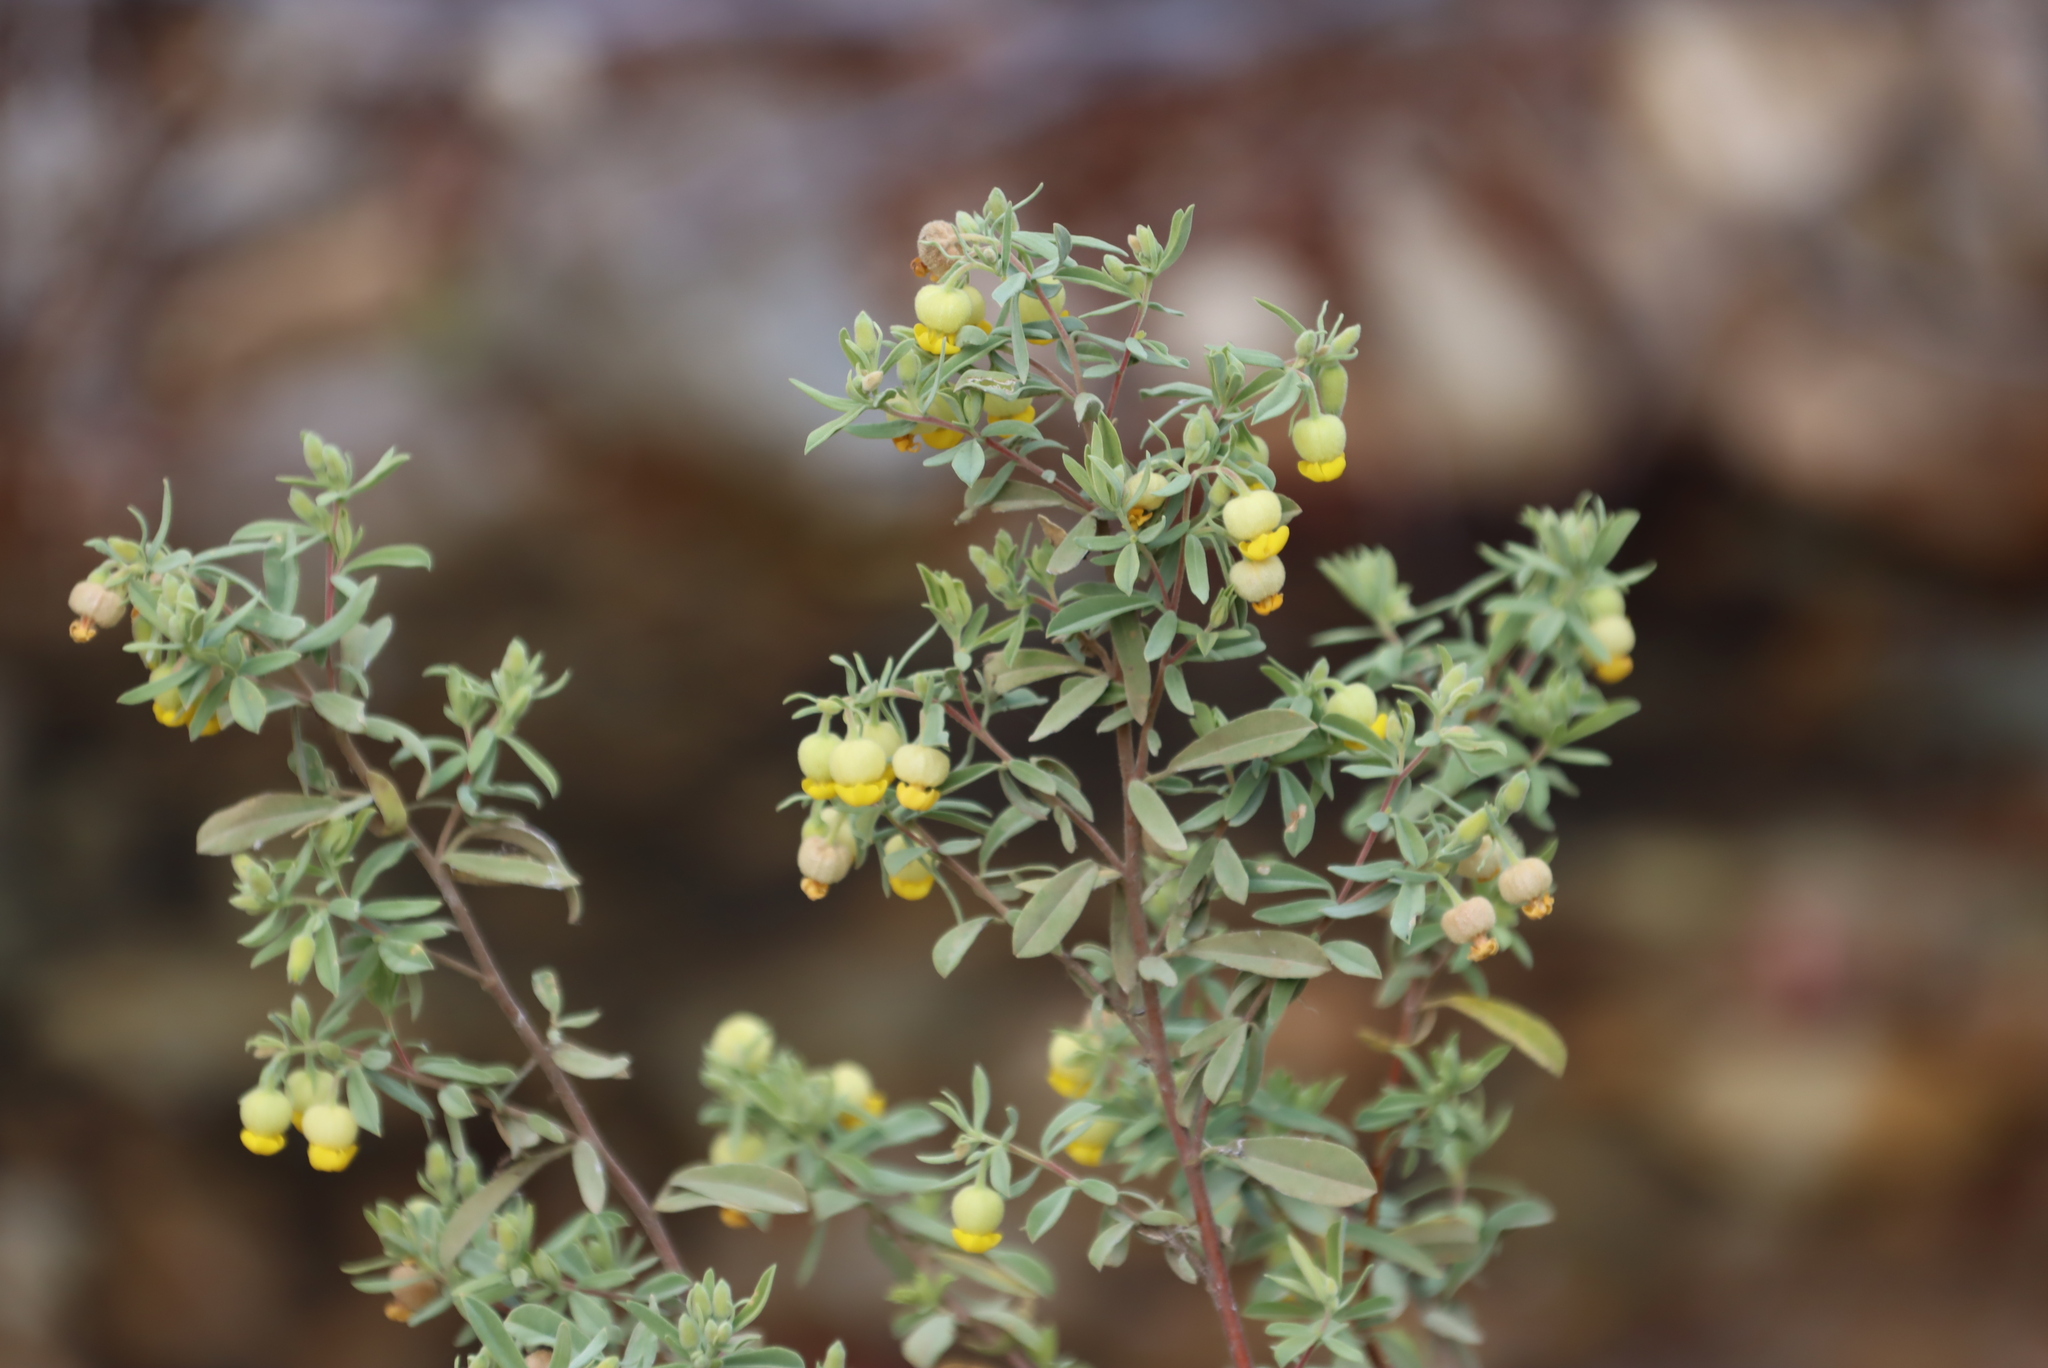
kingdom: Plantae
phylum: Tracheophyta
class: Magnoliopsida
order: Malvales
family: Malvaceae
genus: Hermannia
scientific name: Hermannia mucronulata
